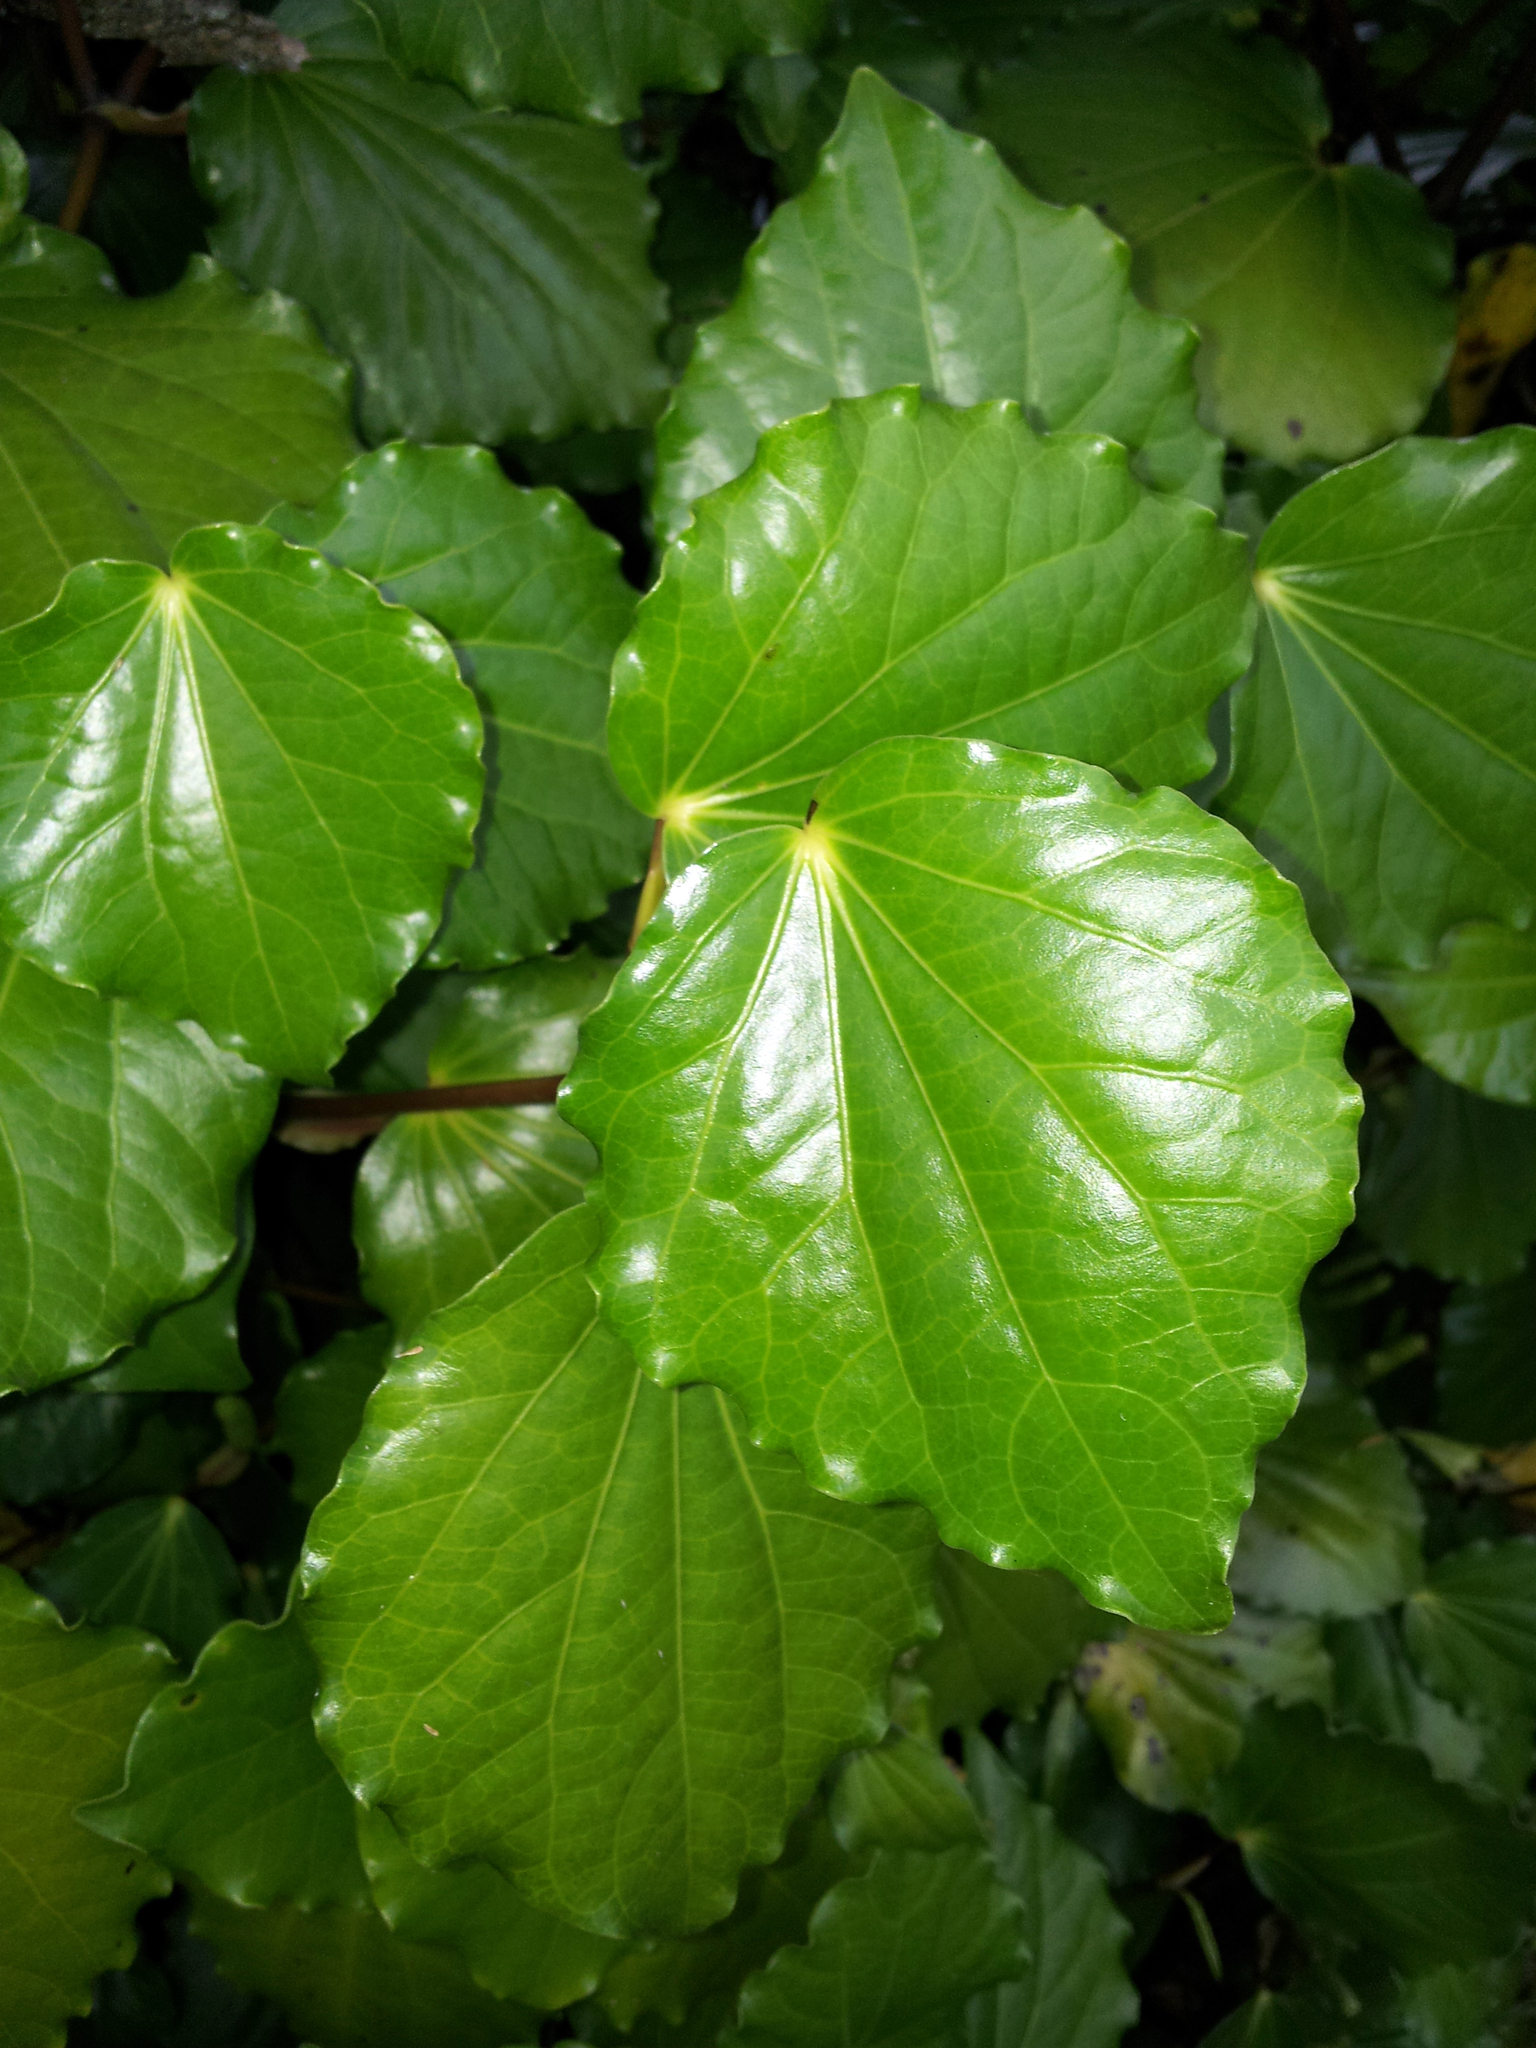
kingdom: Plantae
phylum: Tracheophyta
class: Magnoliopsida
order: Piperales
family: Piperaceae
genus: Macropiper
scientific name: Macropiper excelsum
